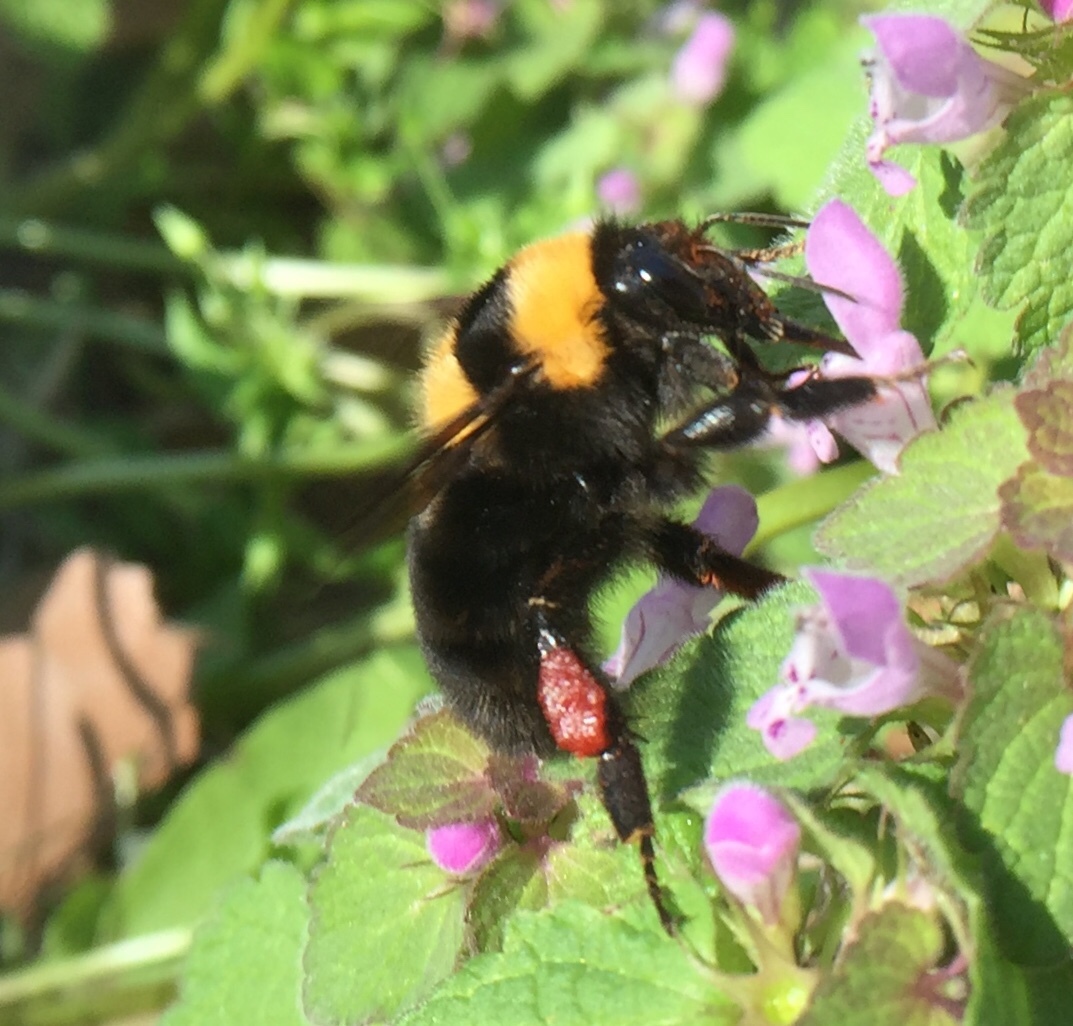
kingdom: Animalia
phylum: Arthropoda
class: Insecta
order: Hymenoptera
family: Apidae
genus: Bombus
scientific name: Bombus argillaceus
